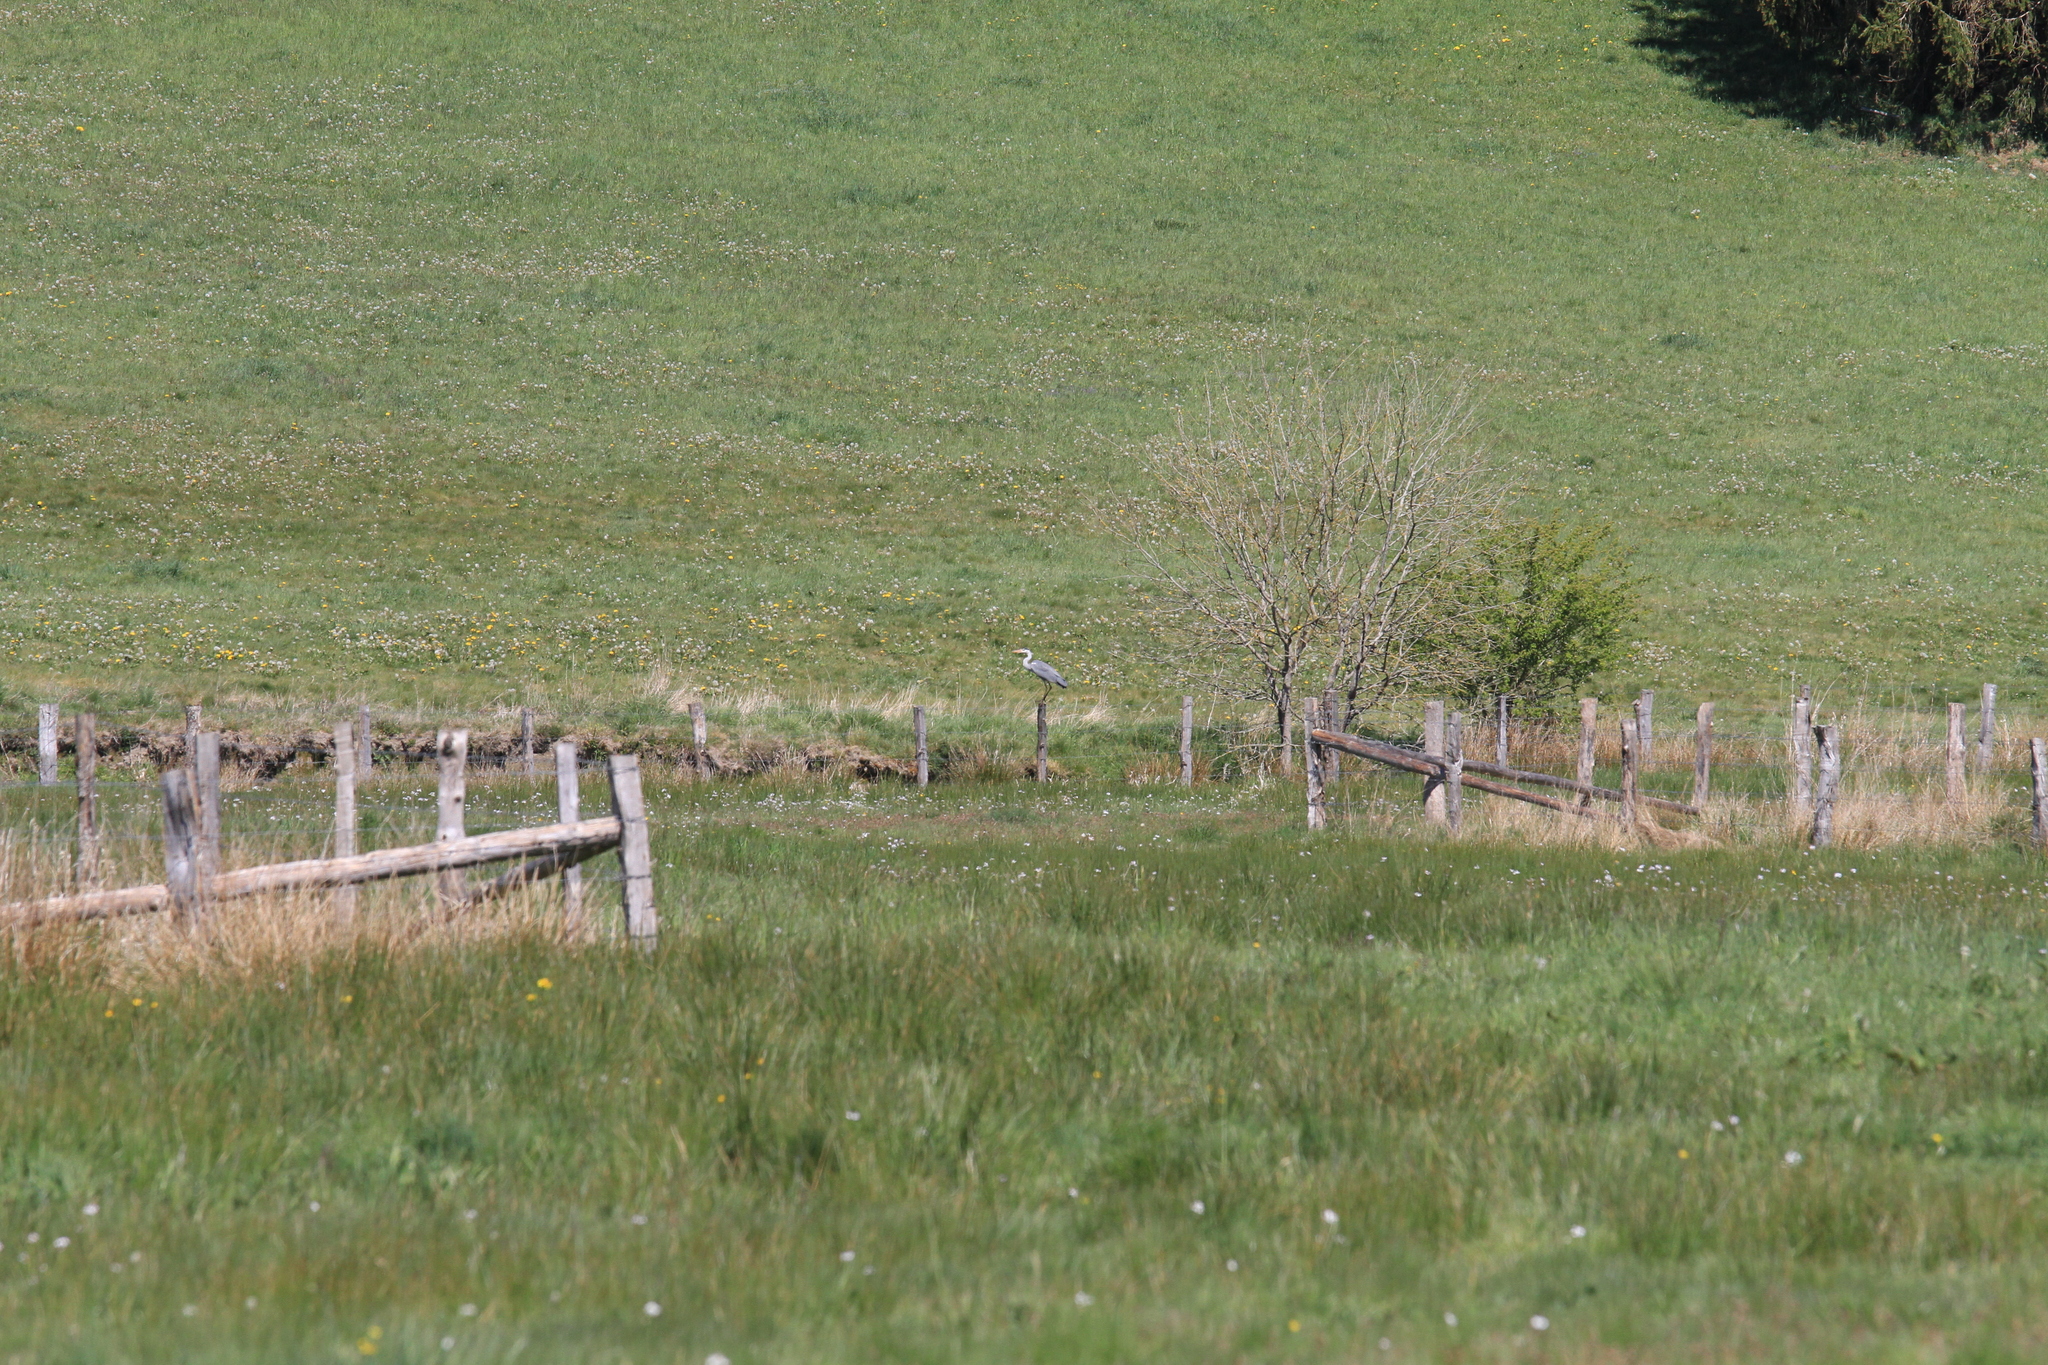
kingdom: Animalia
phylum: Chordata
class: Aves
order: Pelecaniformes
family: Ardeidae
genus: Ardea
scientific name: Ardea cinerea
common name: Grey heron
